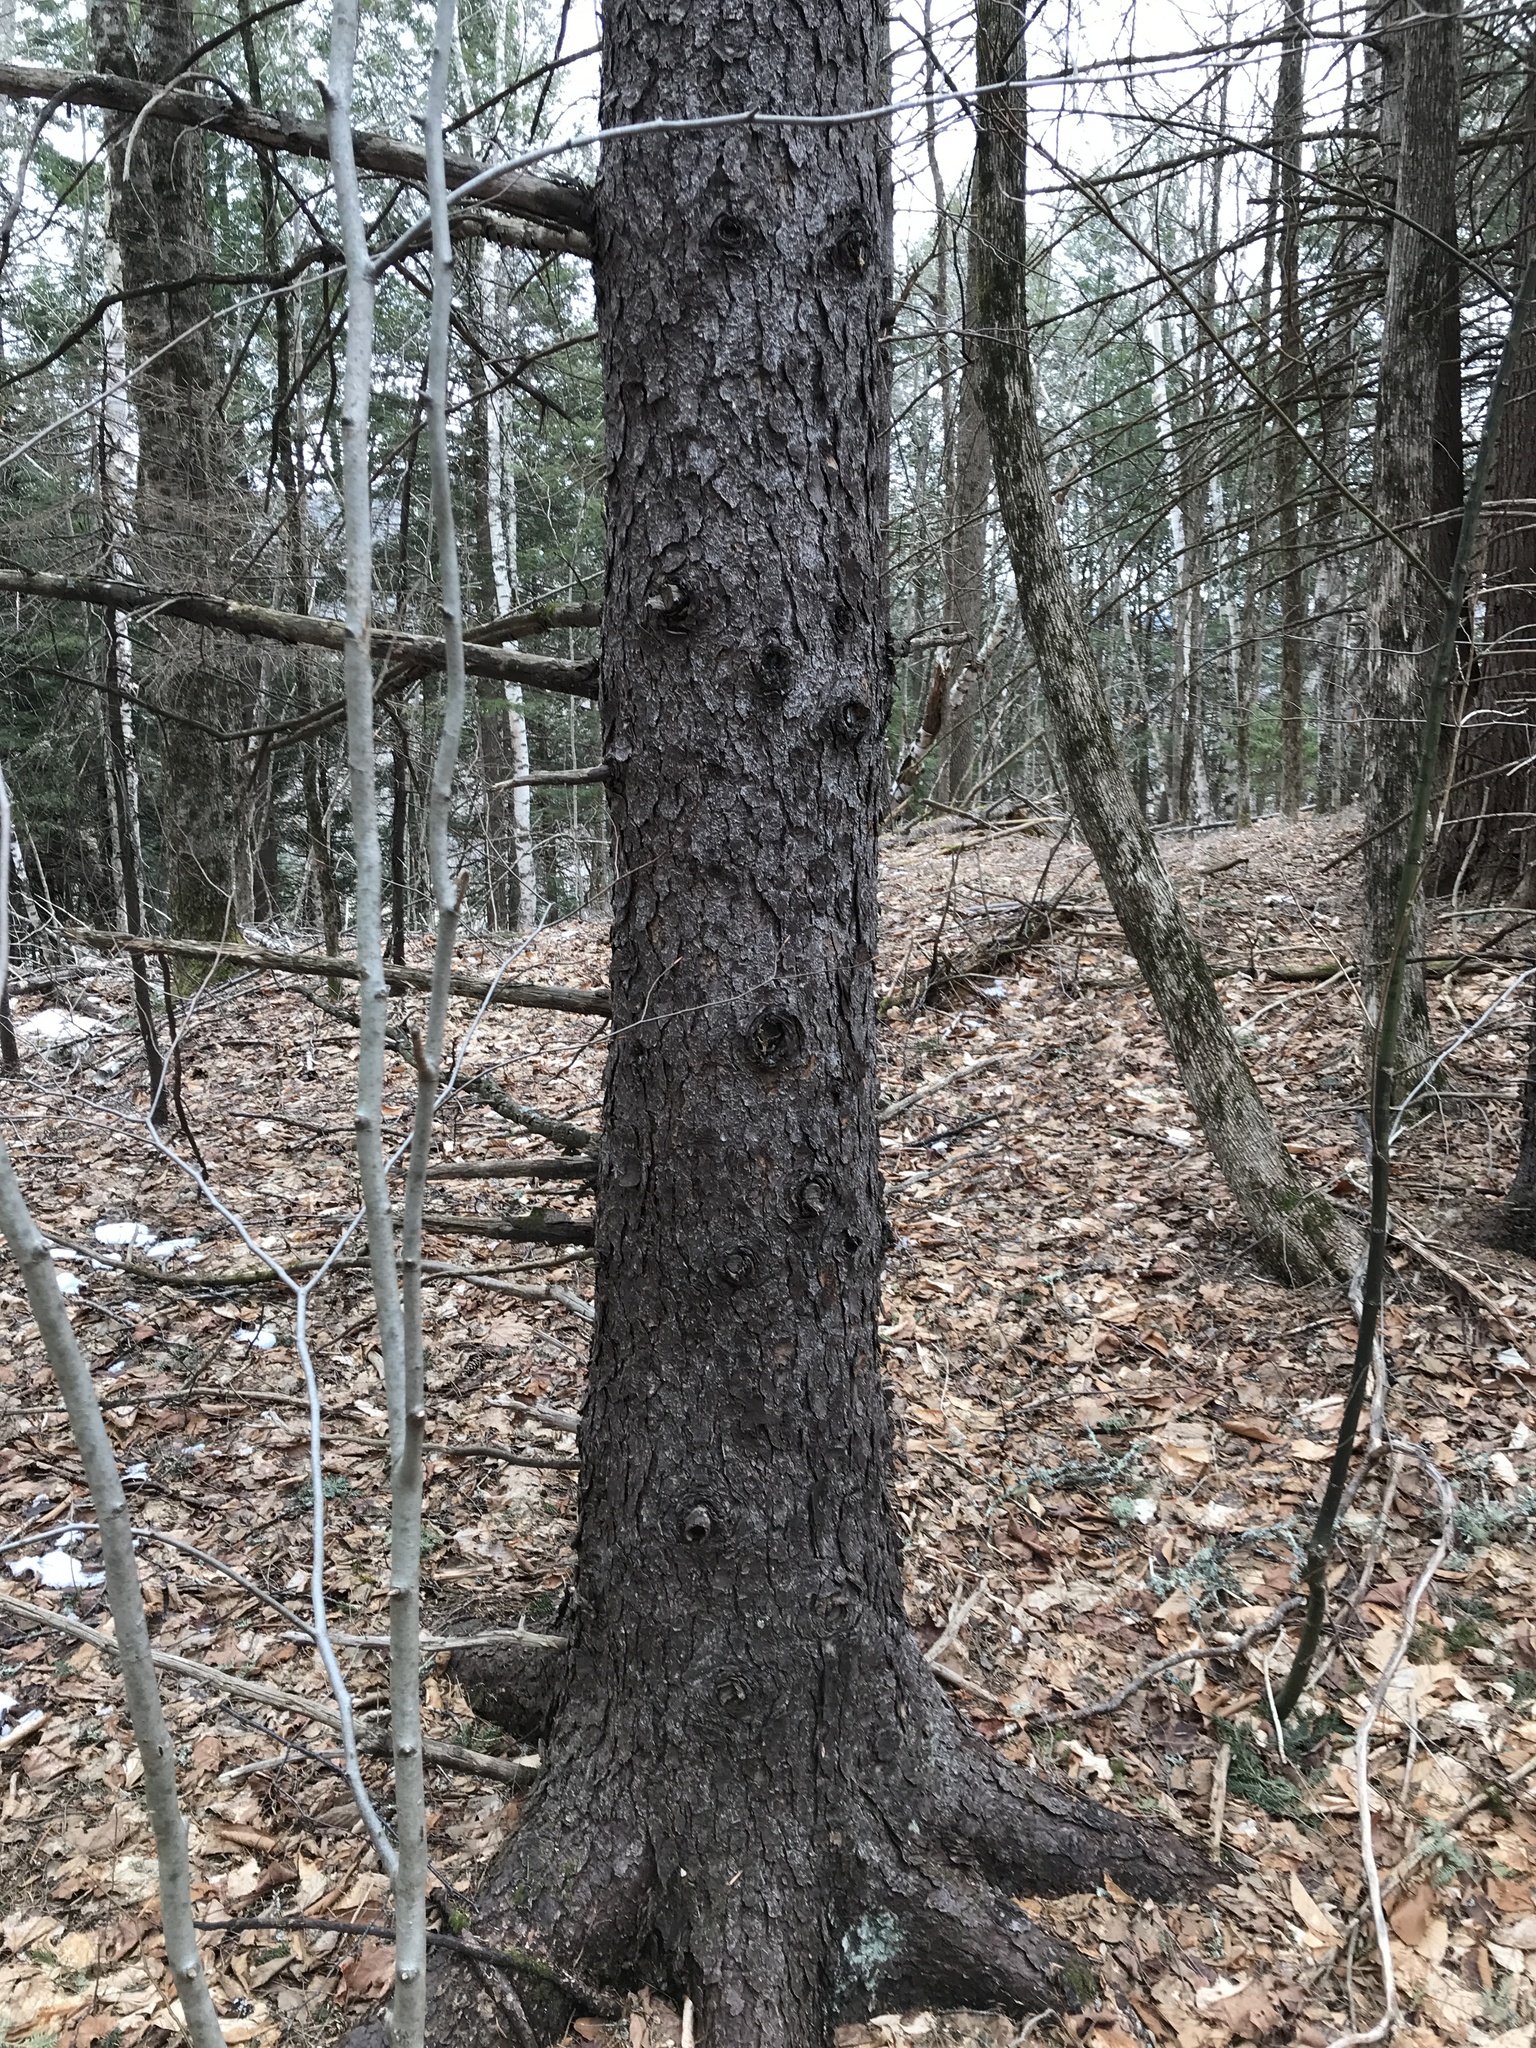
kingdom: Plantae
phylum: Tracheophyta
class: Pinopsida
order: Pinales
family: Pinaceae
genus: Picea
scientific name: Picea rubens
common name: Red spruce
